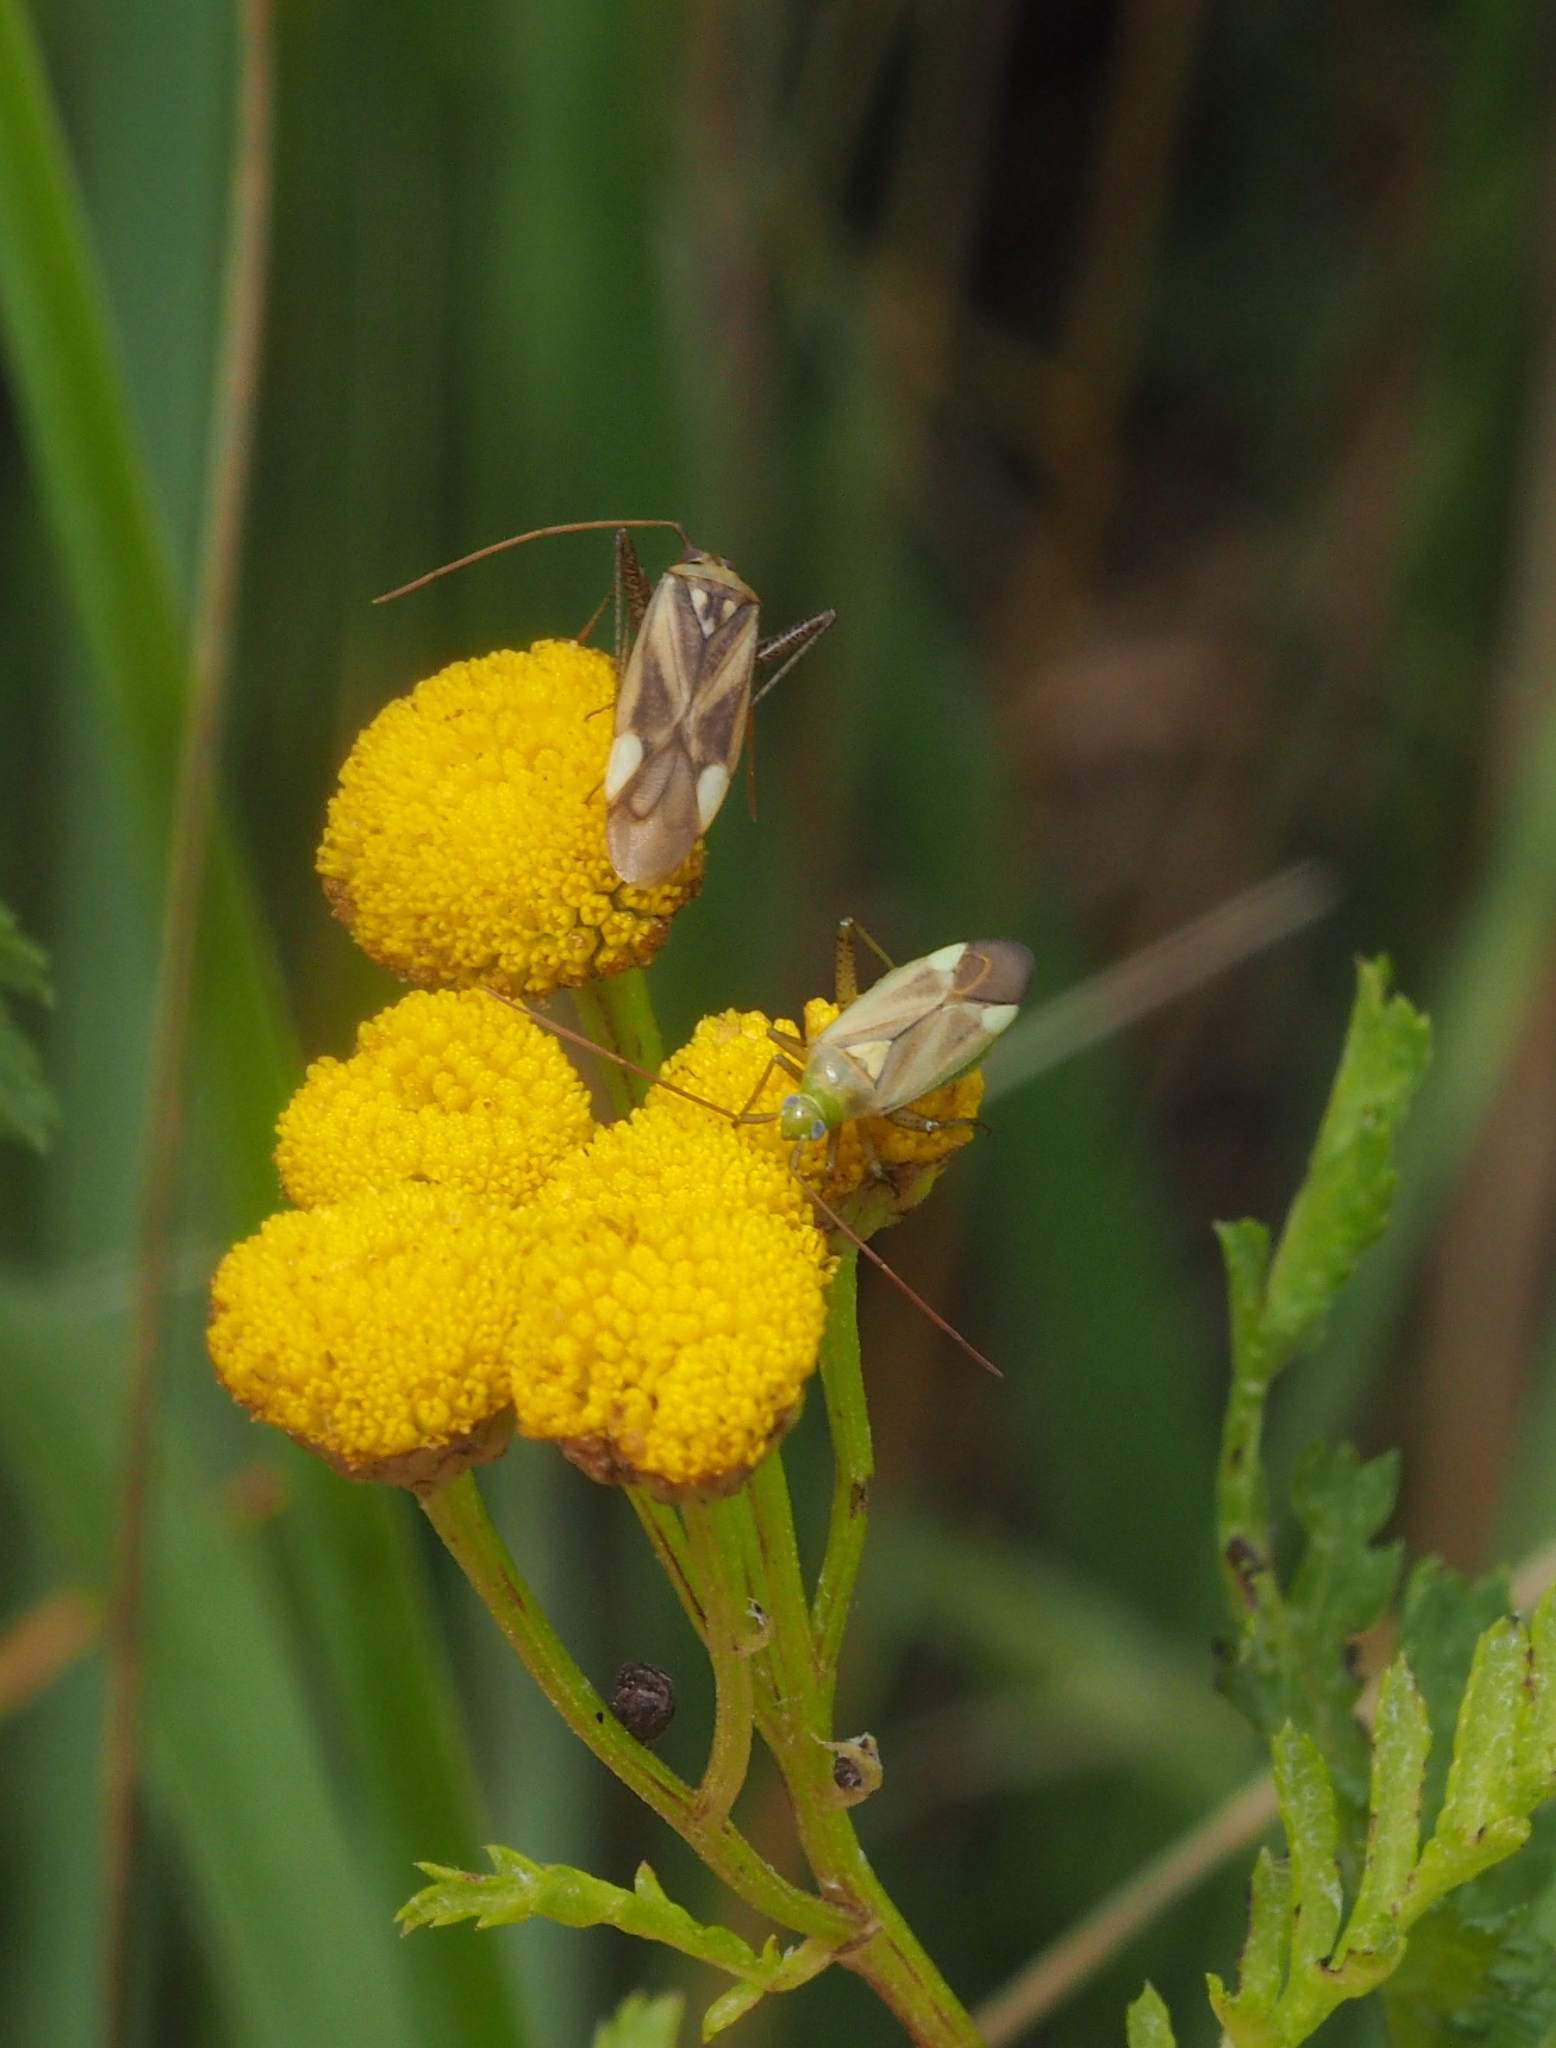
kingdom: Animalia
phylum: Arthropoda
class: Insecta
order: Hemiptera
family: Miridae
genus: Adelphocoris
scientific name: Adelphocoris lineolatus
